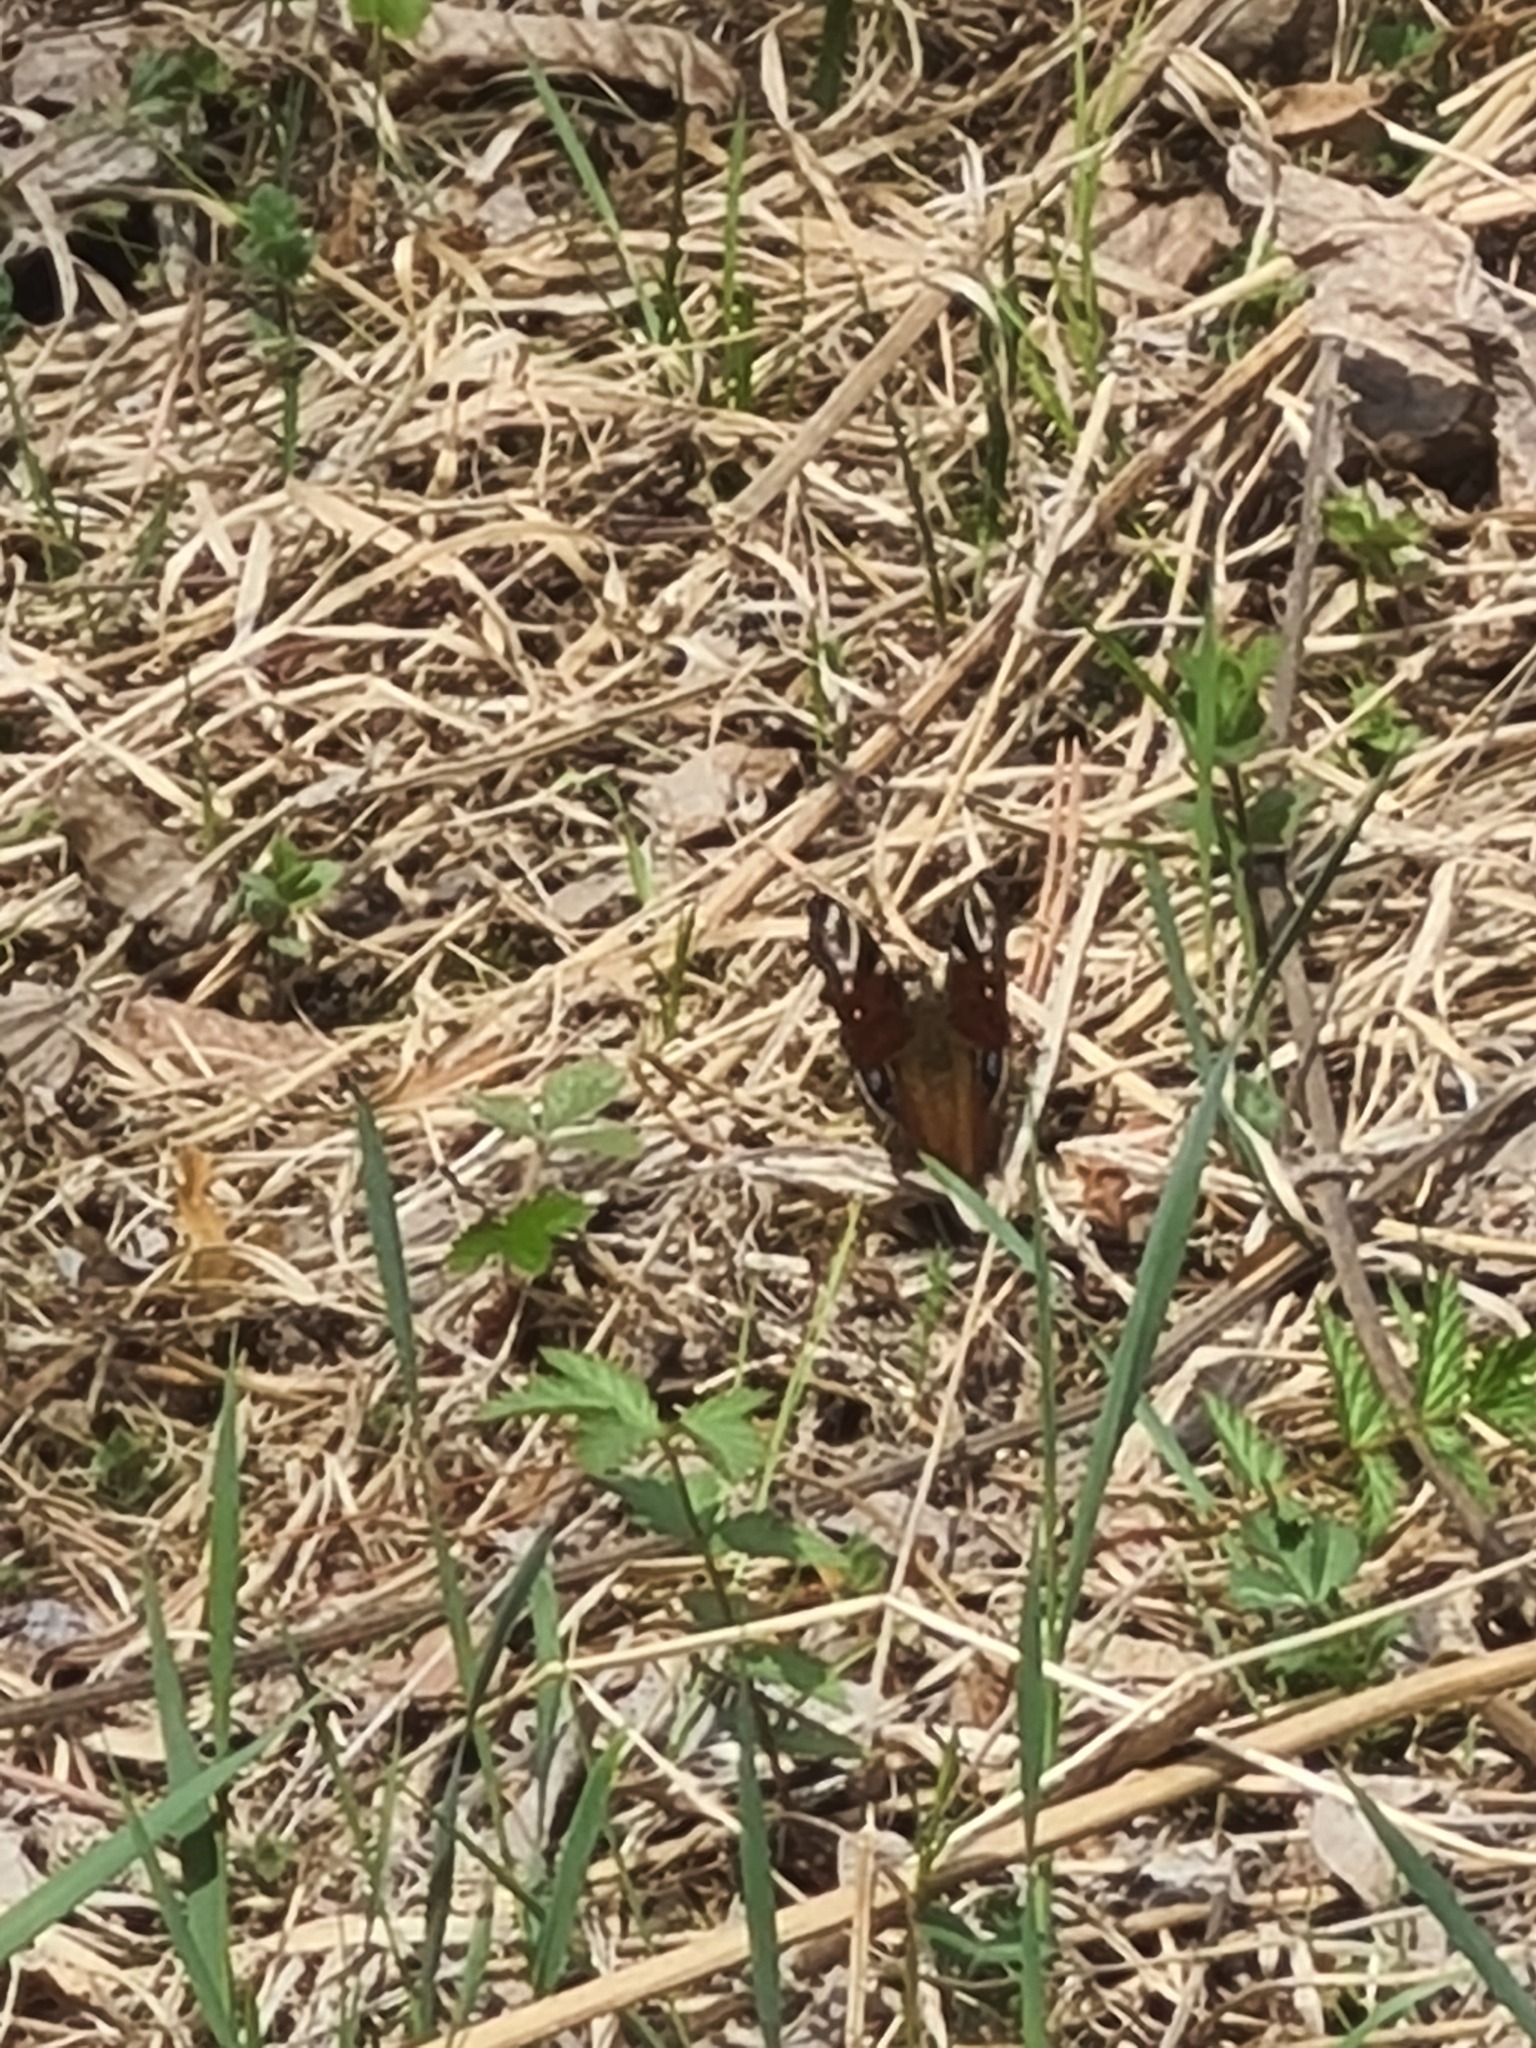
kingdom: Animalia
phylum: Arthropoda
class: Insecta
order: Lepidoptera
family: Nymphalidae
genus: Aglais
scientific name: Aglais io
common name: Peacock
